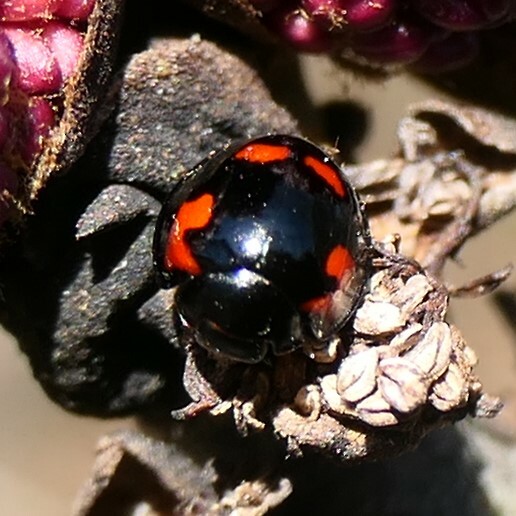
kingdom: Animalia
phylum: Arthropoda
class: Insecta
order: Coleoptera
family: Coccinellidae
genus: Brumus
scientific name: Brumus quadripustulatus
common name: Ladybird beetle
